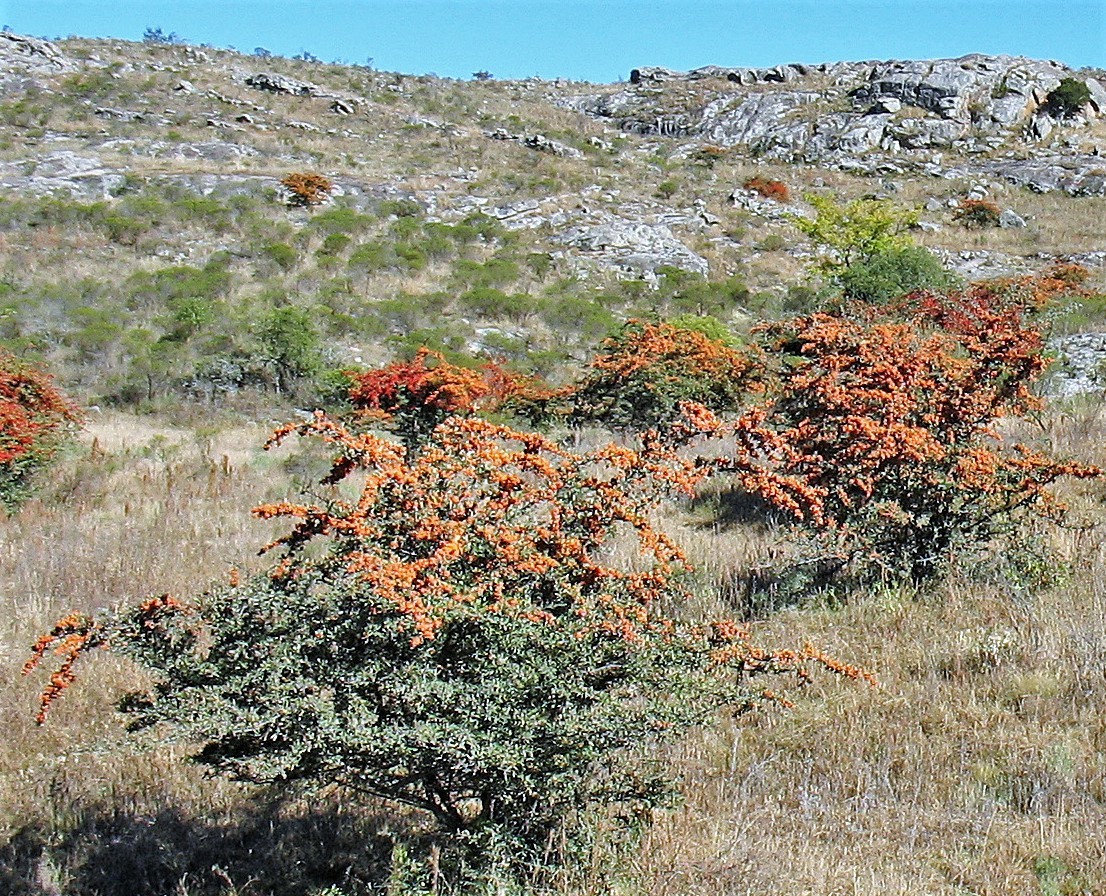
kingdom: Plantae
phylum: Tracheophyta
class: Magnoliopsida
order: Rosales
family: Rosaceae
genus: Pyracantha
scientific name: Pyracantha coccinea
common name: Firethorn
